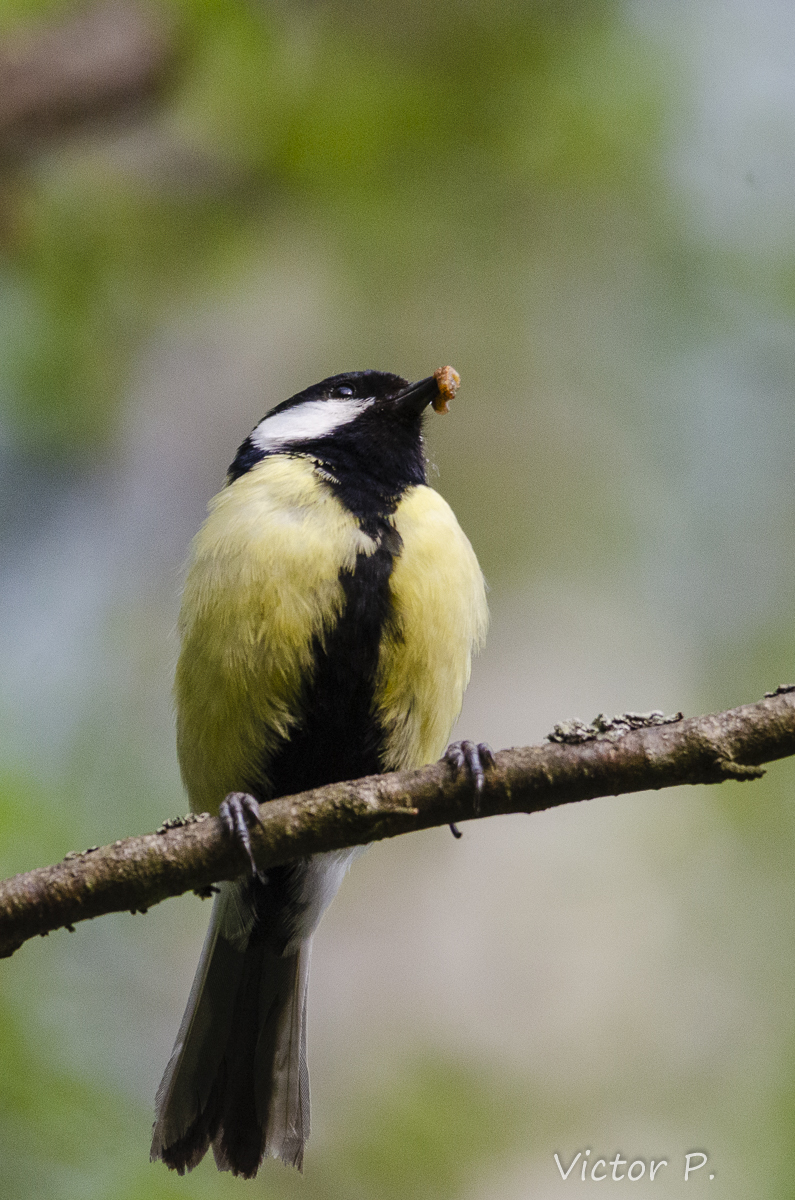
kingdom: Animalia
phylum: Chordata
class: Aves
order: Passeriformes
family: Paridae
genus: Parus
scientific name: Parus major
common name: Great tit
